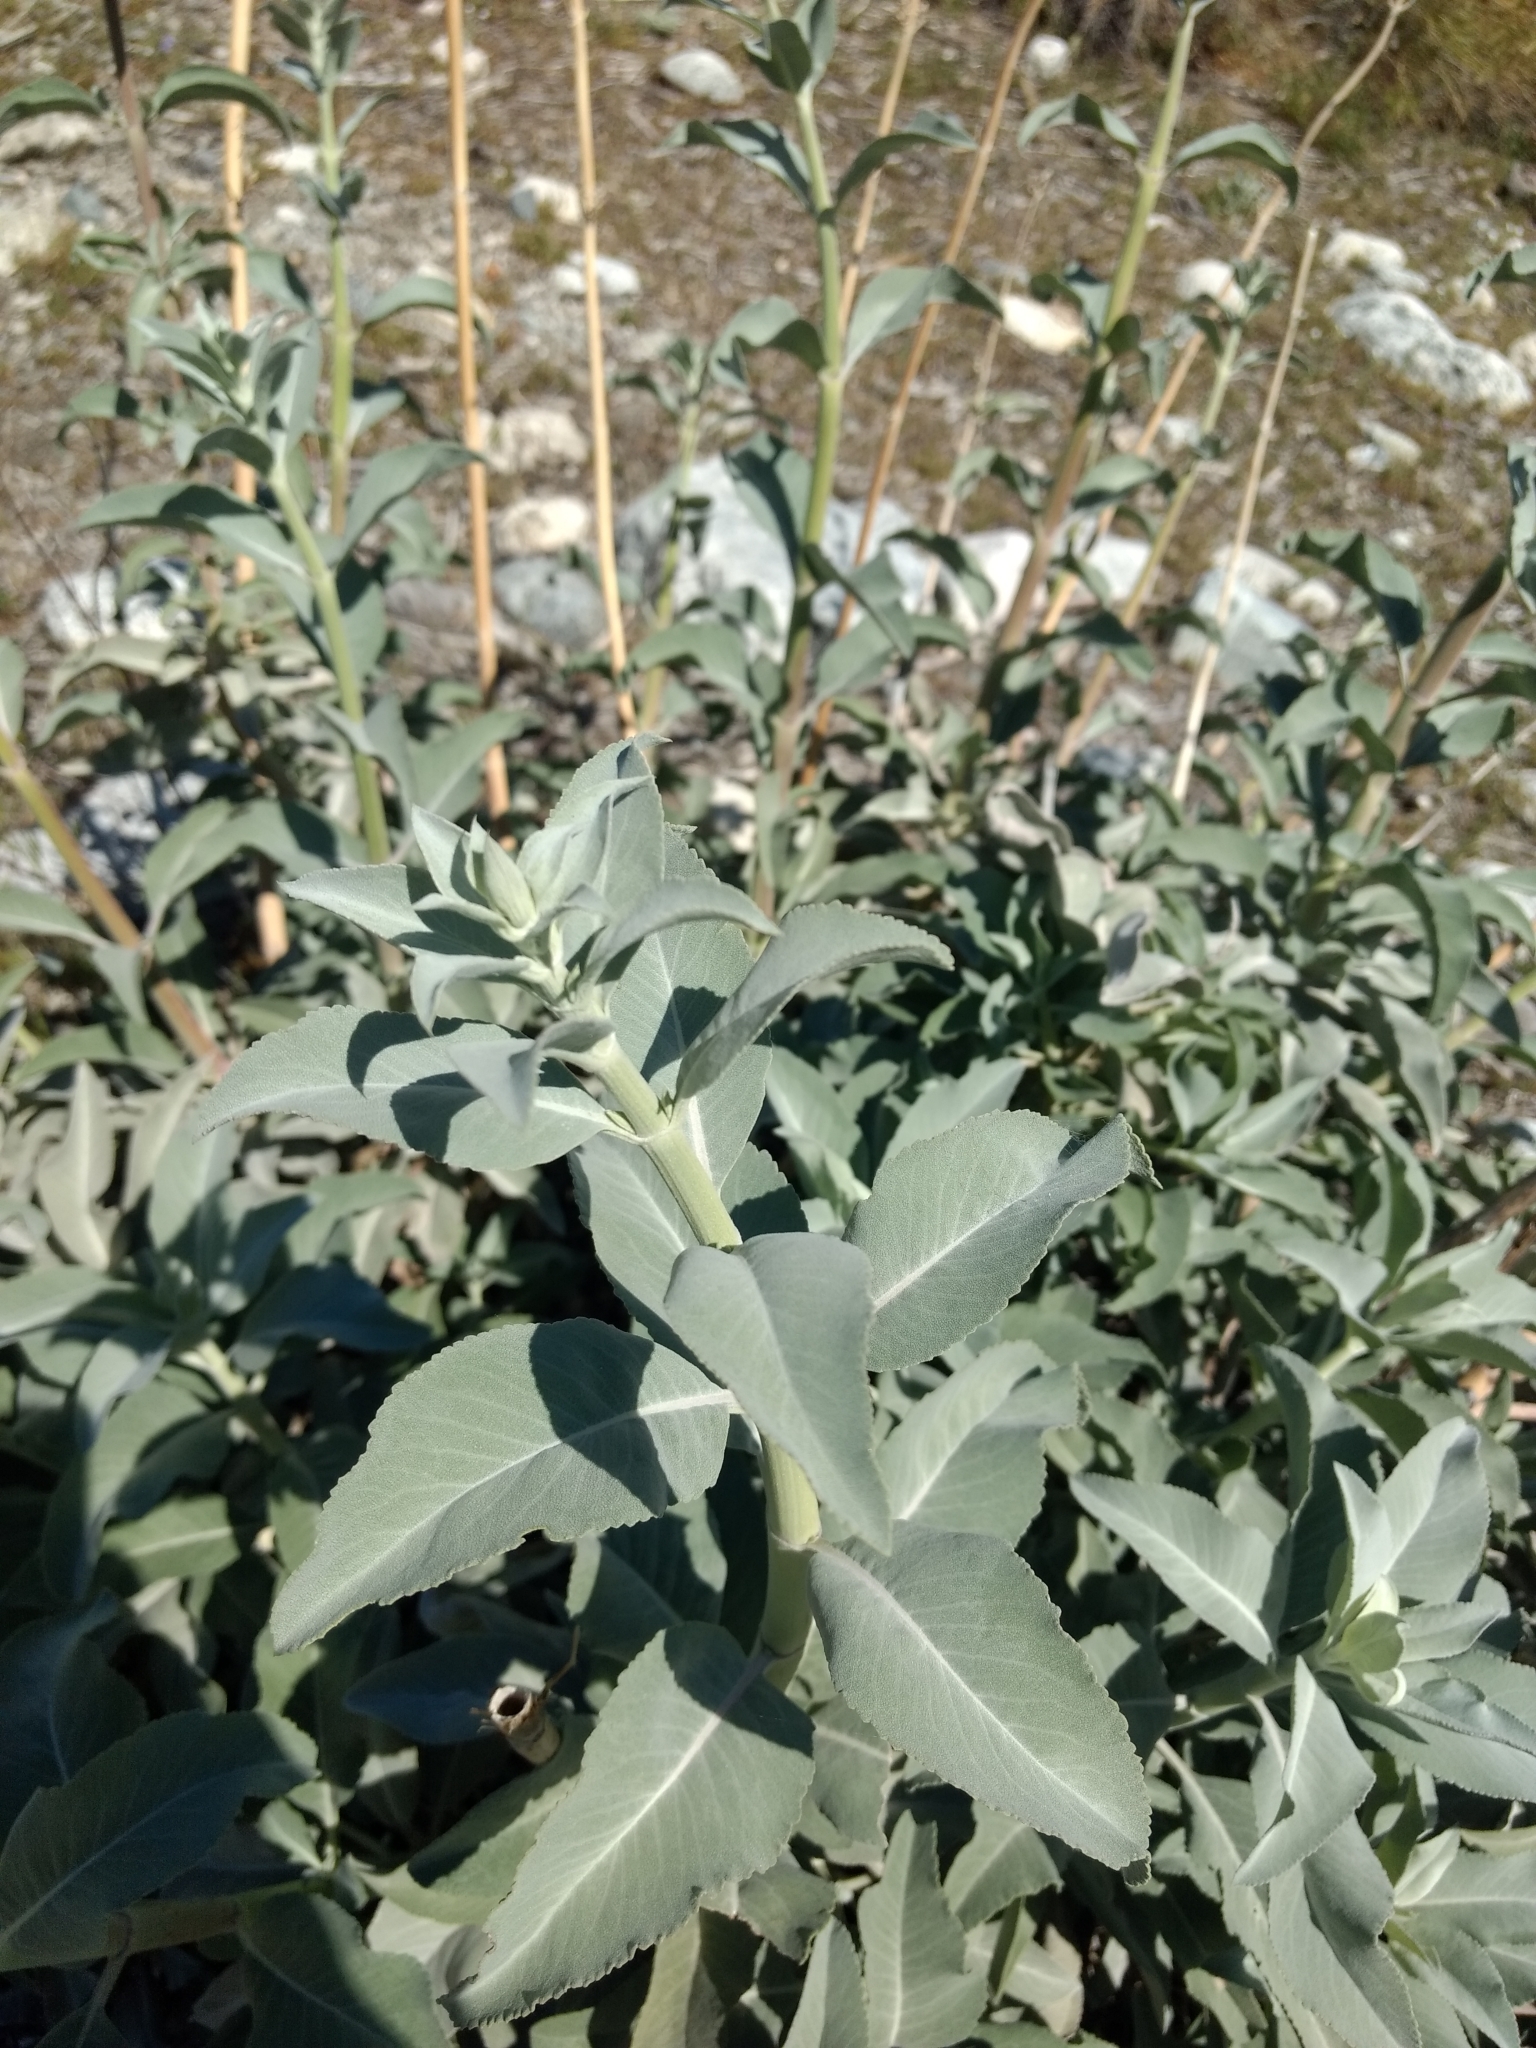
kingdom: Plantae
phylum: Tracheophyta
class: Magnoliopsida
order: Lamiales
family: Lamiaceae
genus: Salvia
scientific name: Salvia apiana
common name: White sage
